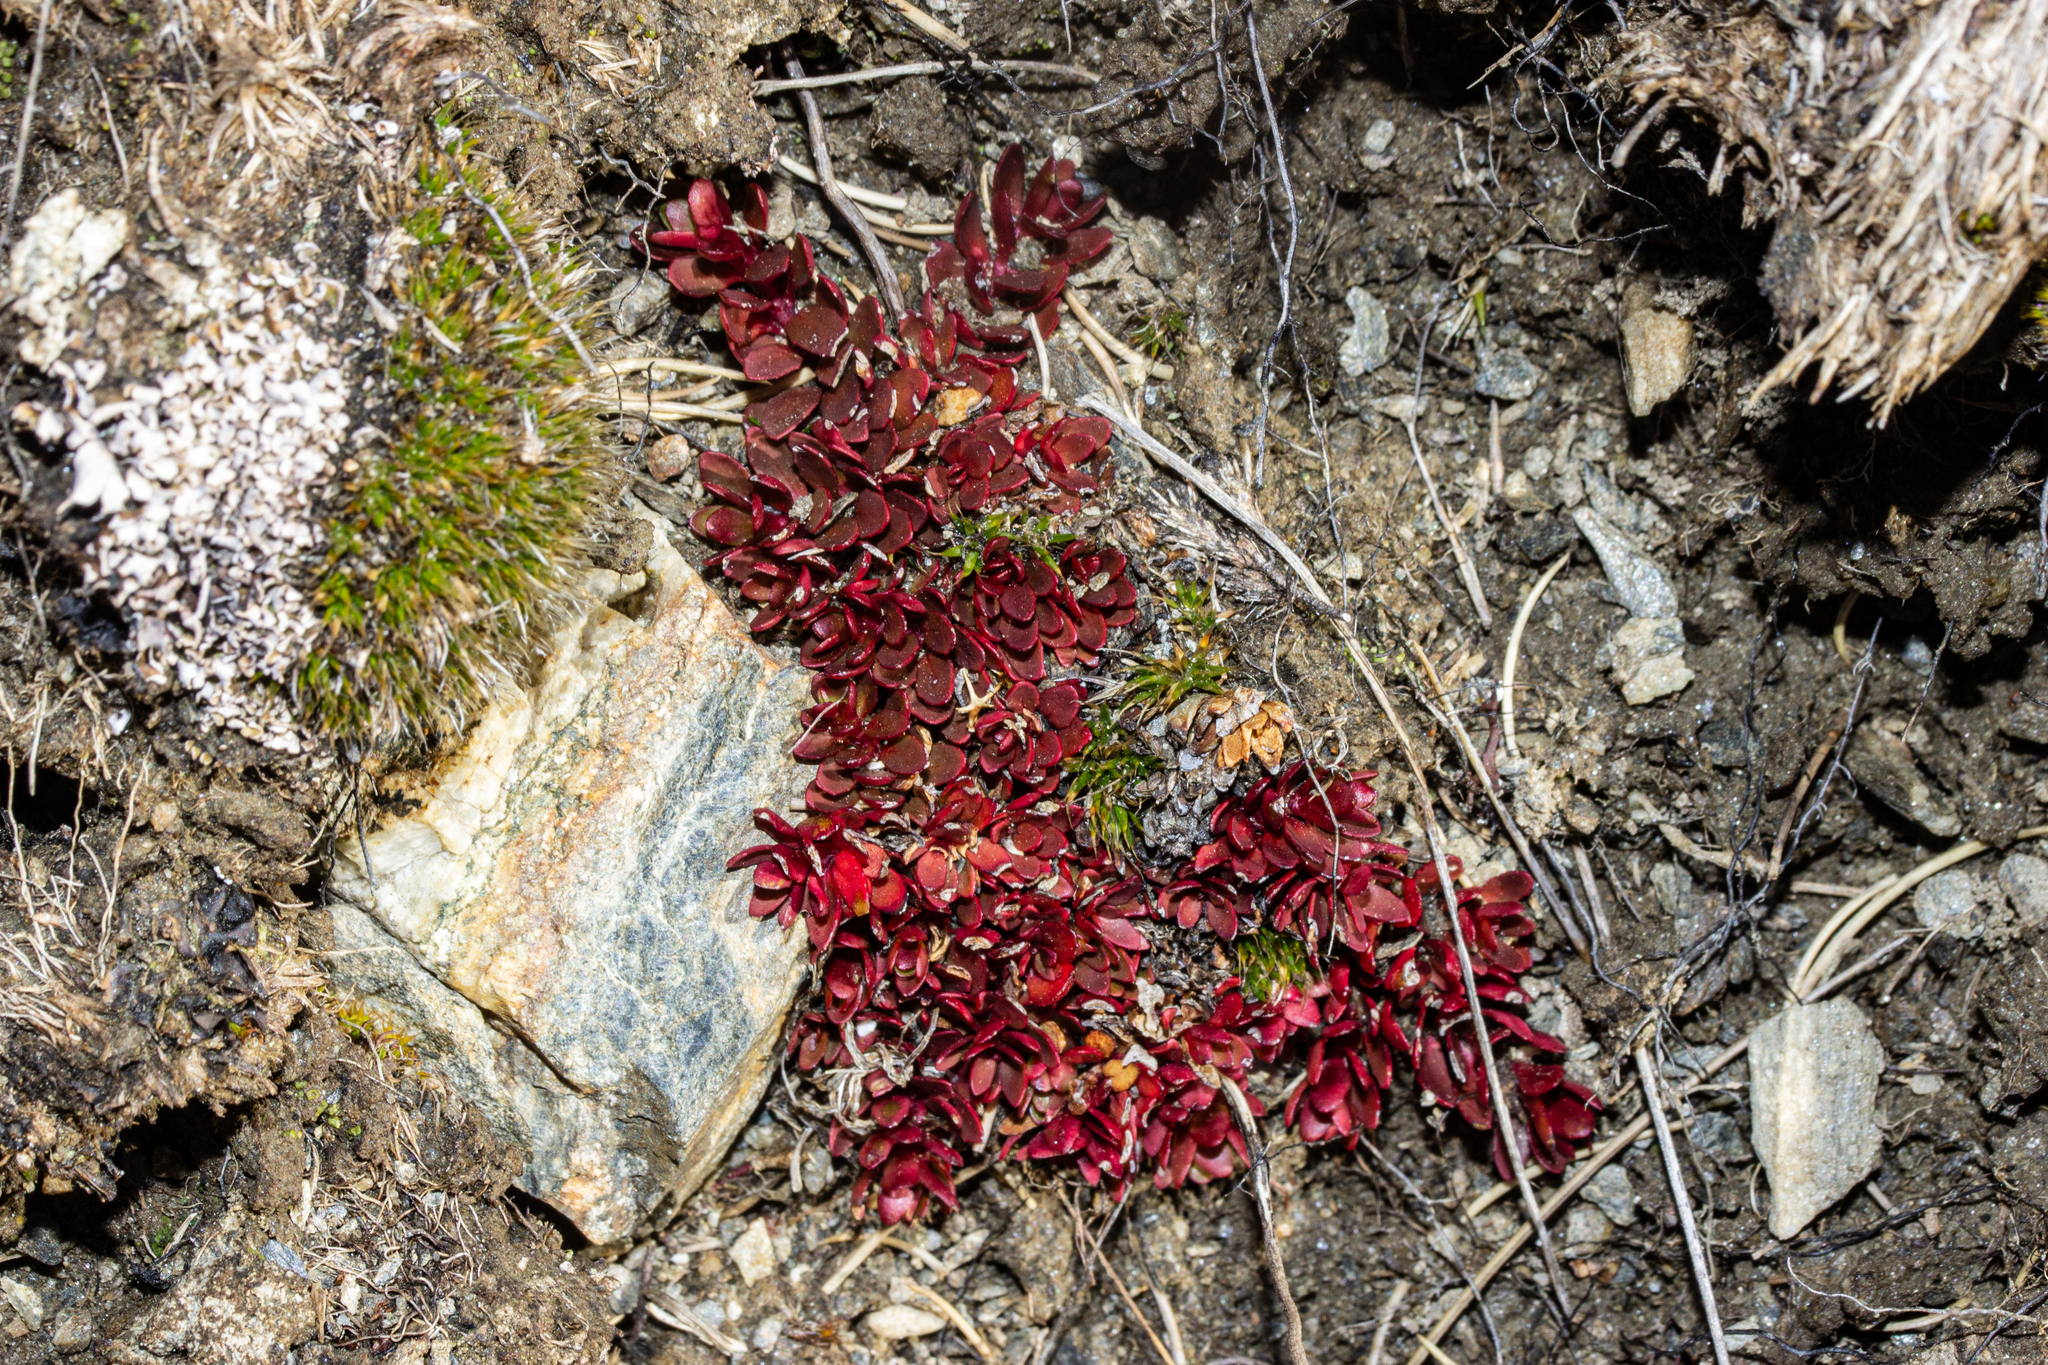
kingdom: Plantae
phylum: Tracheophyta
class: Magnoliopsida
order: Myrtales
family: Onagraceae
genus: Epilobium
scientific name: Epilobium tasmanicum
